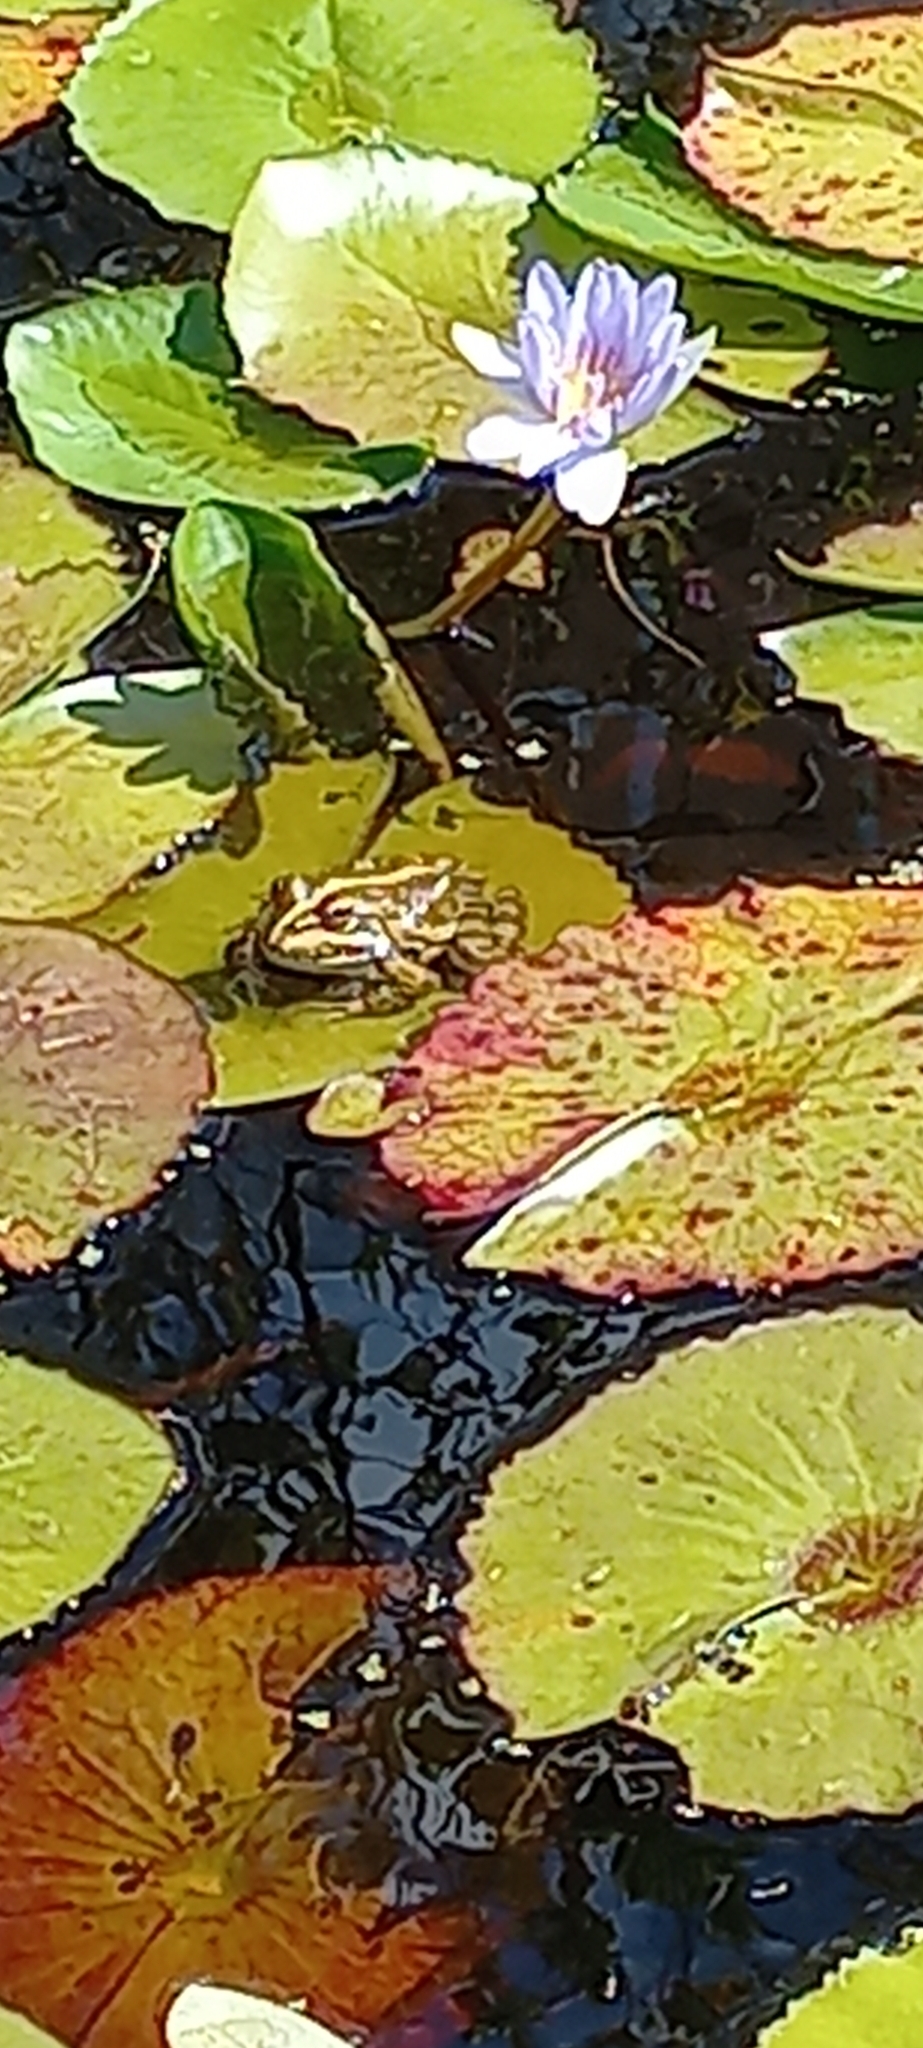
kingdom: Animalia
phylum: Chordata
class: Amphibia
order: Anura
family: Pyxicephalidae
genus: Amietia
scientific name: Amietia fuscigula
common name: Cape rana
